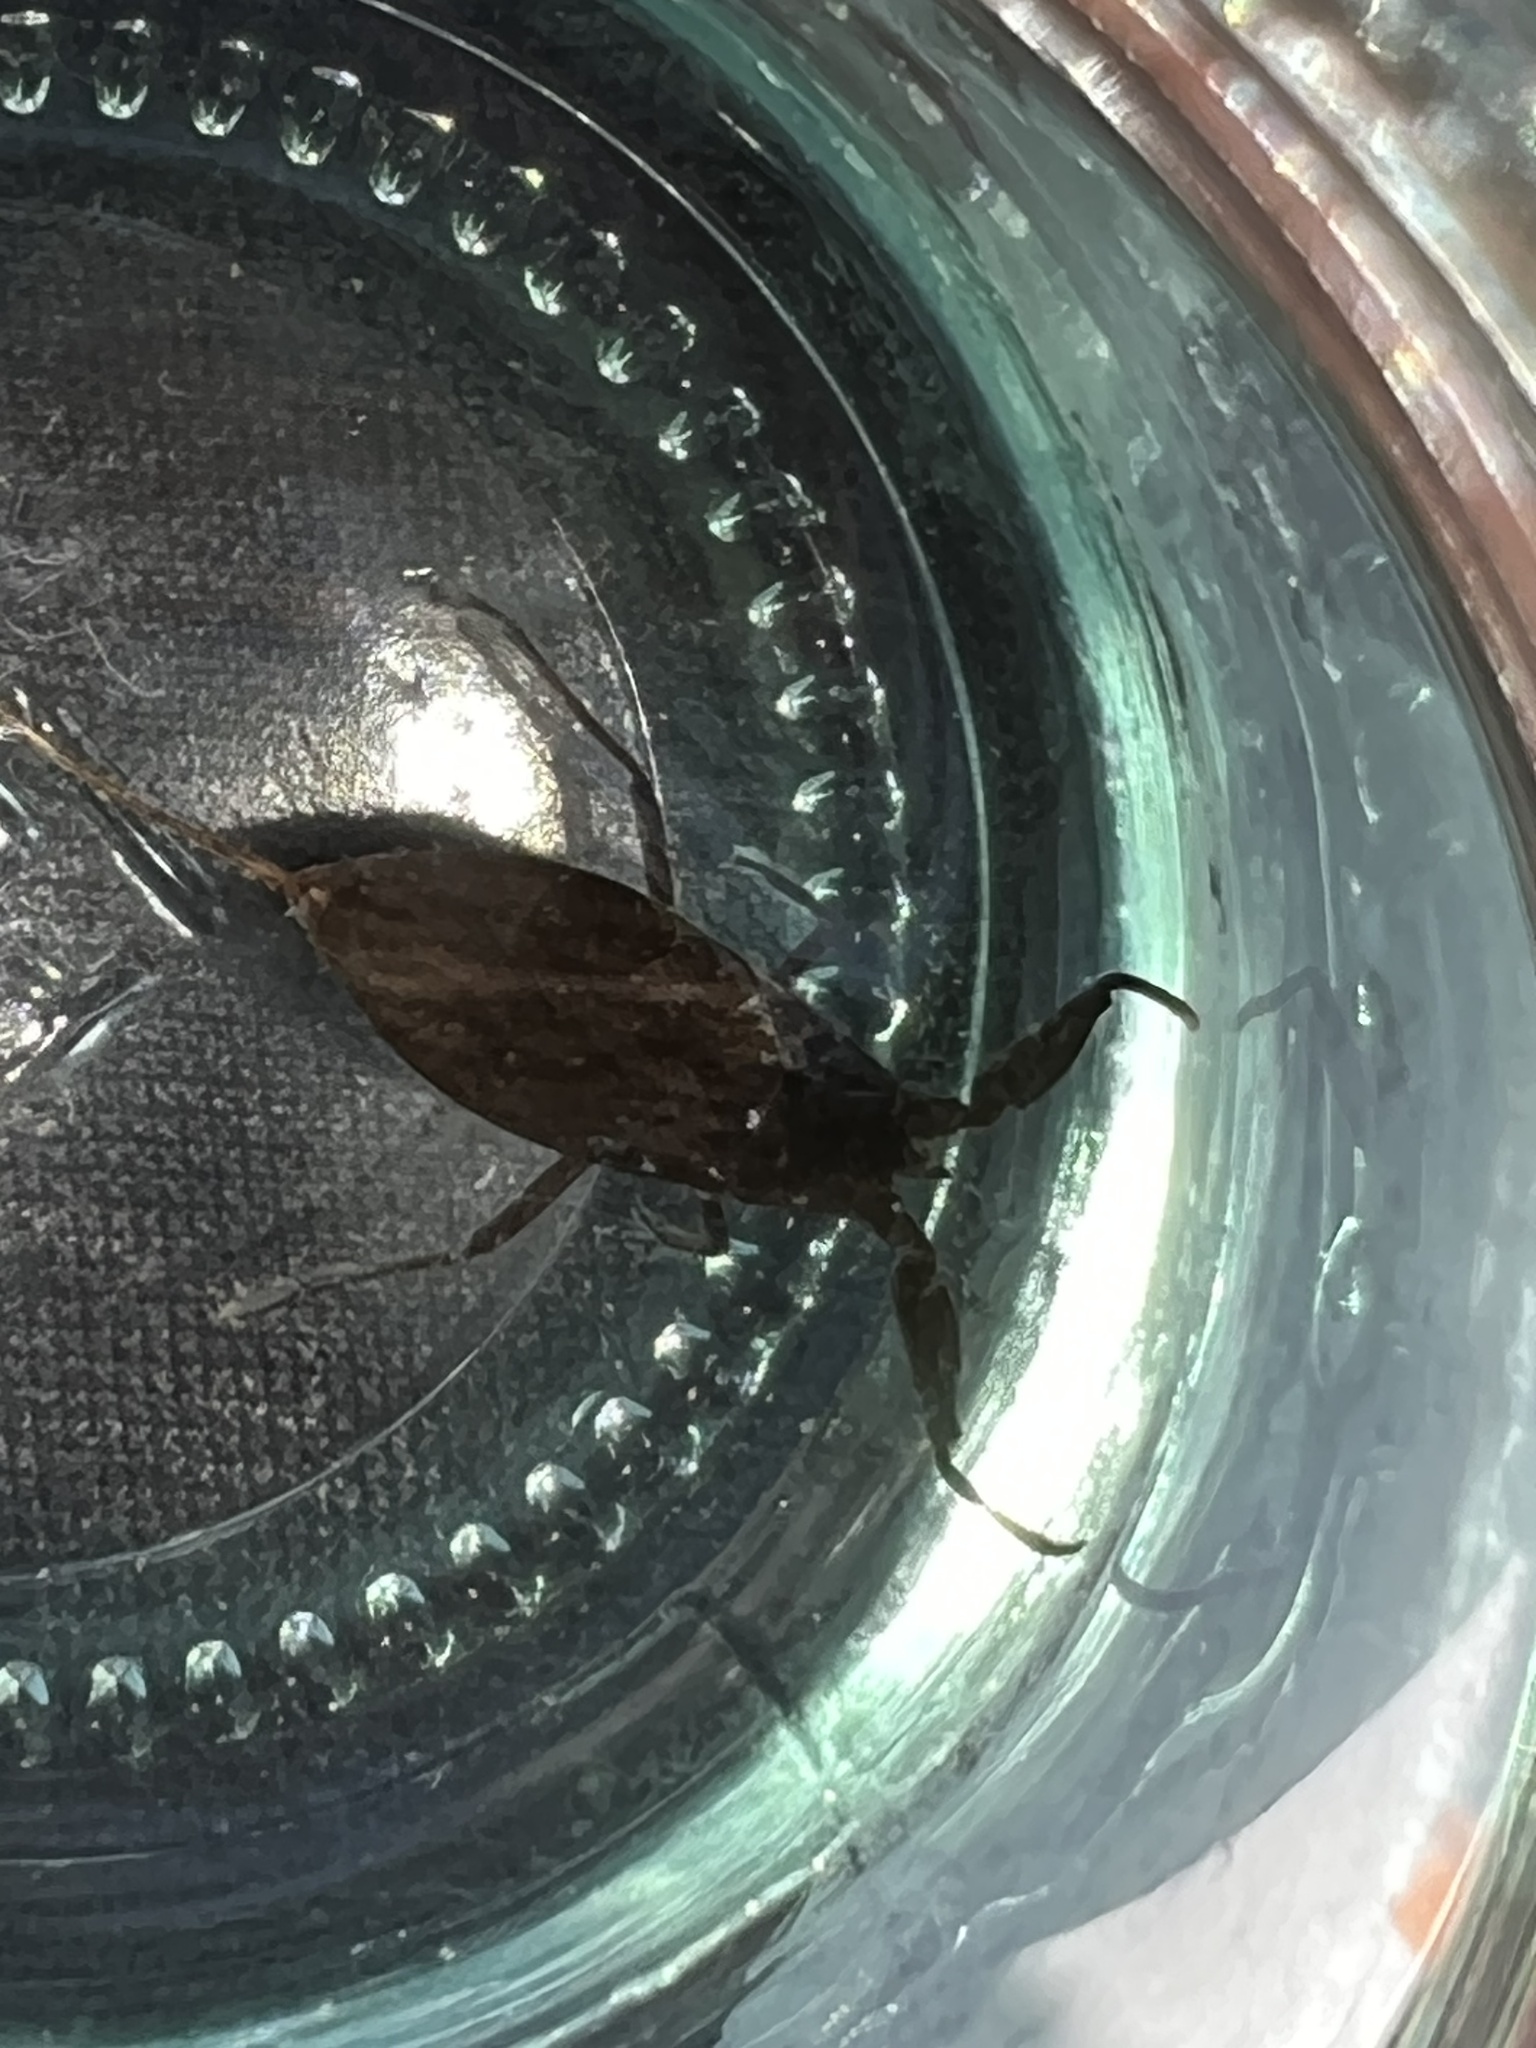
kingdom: Animalia
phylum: Arthropoda
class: Insecta
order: Hemiptera
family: Nepidae
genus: Nepa
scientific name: Nepa cinerea
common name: Water scorpion
